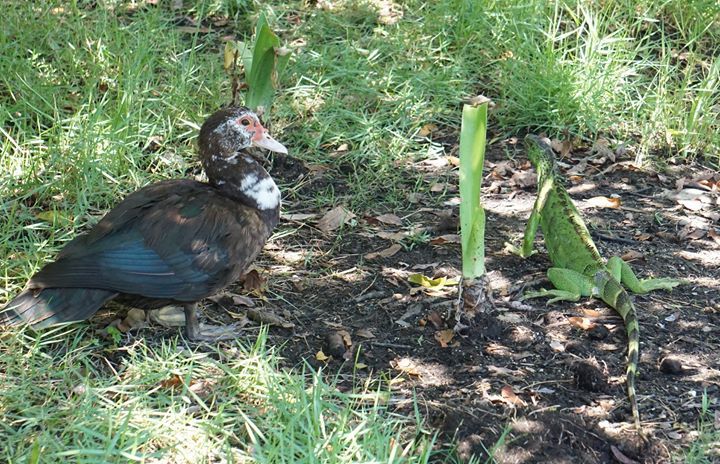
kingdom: Animalia
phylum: Chordata
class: Aves
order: Anseriformes
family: Anatidae
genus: Cairina
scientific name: Cairina moschata
